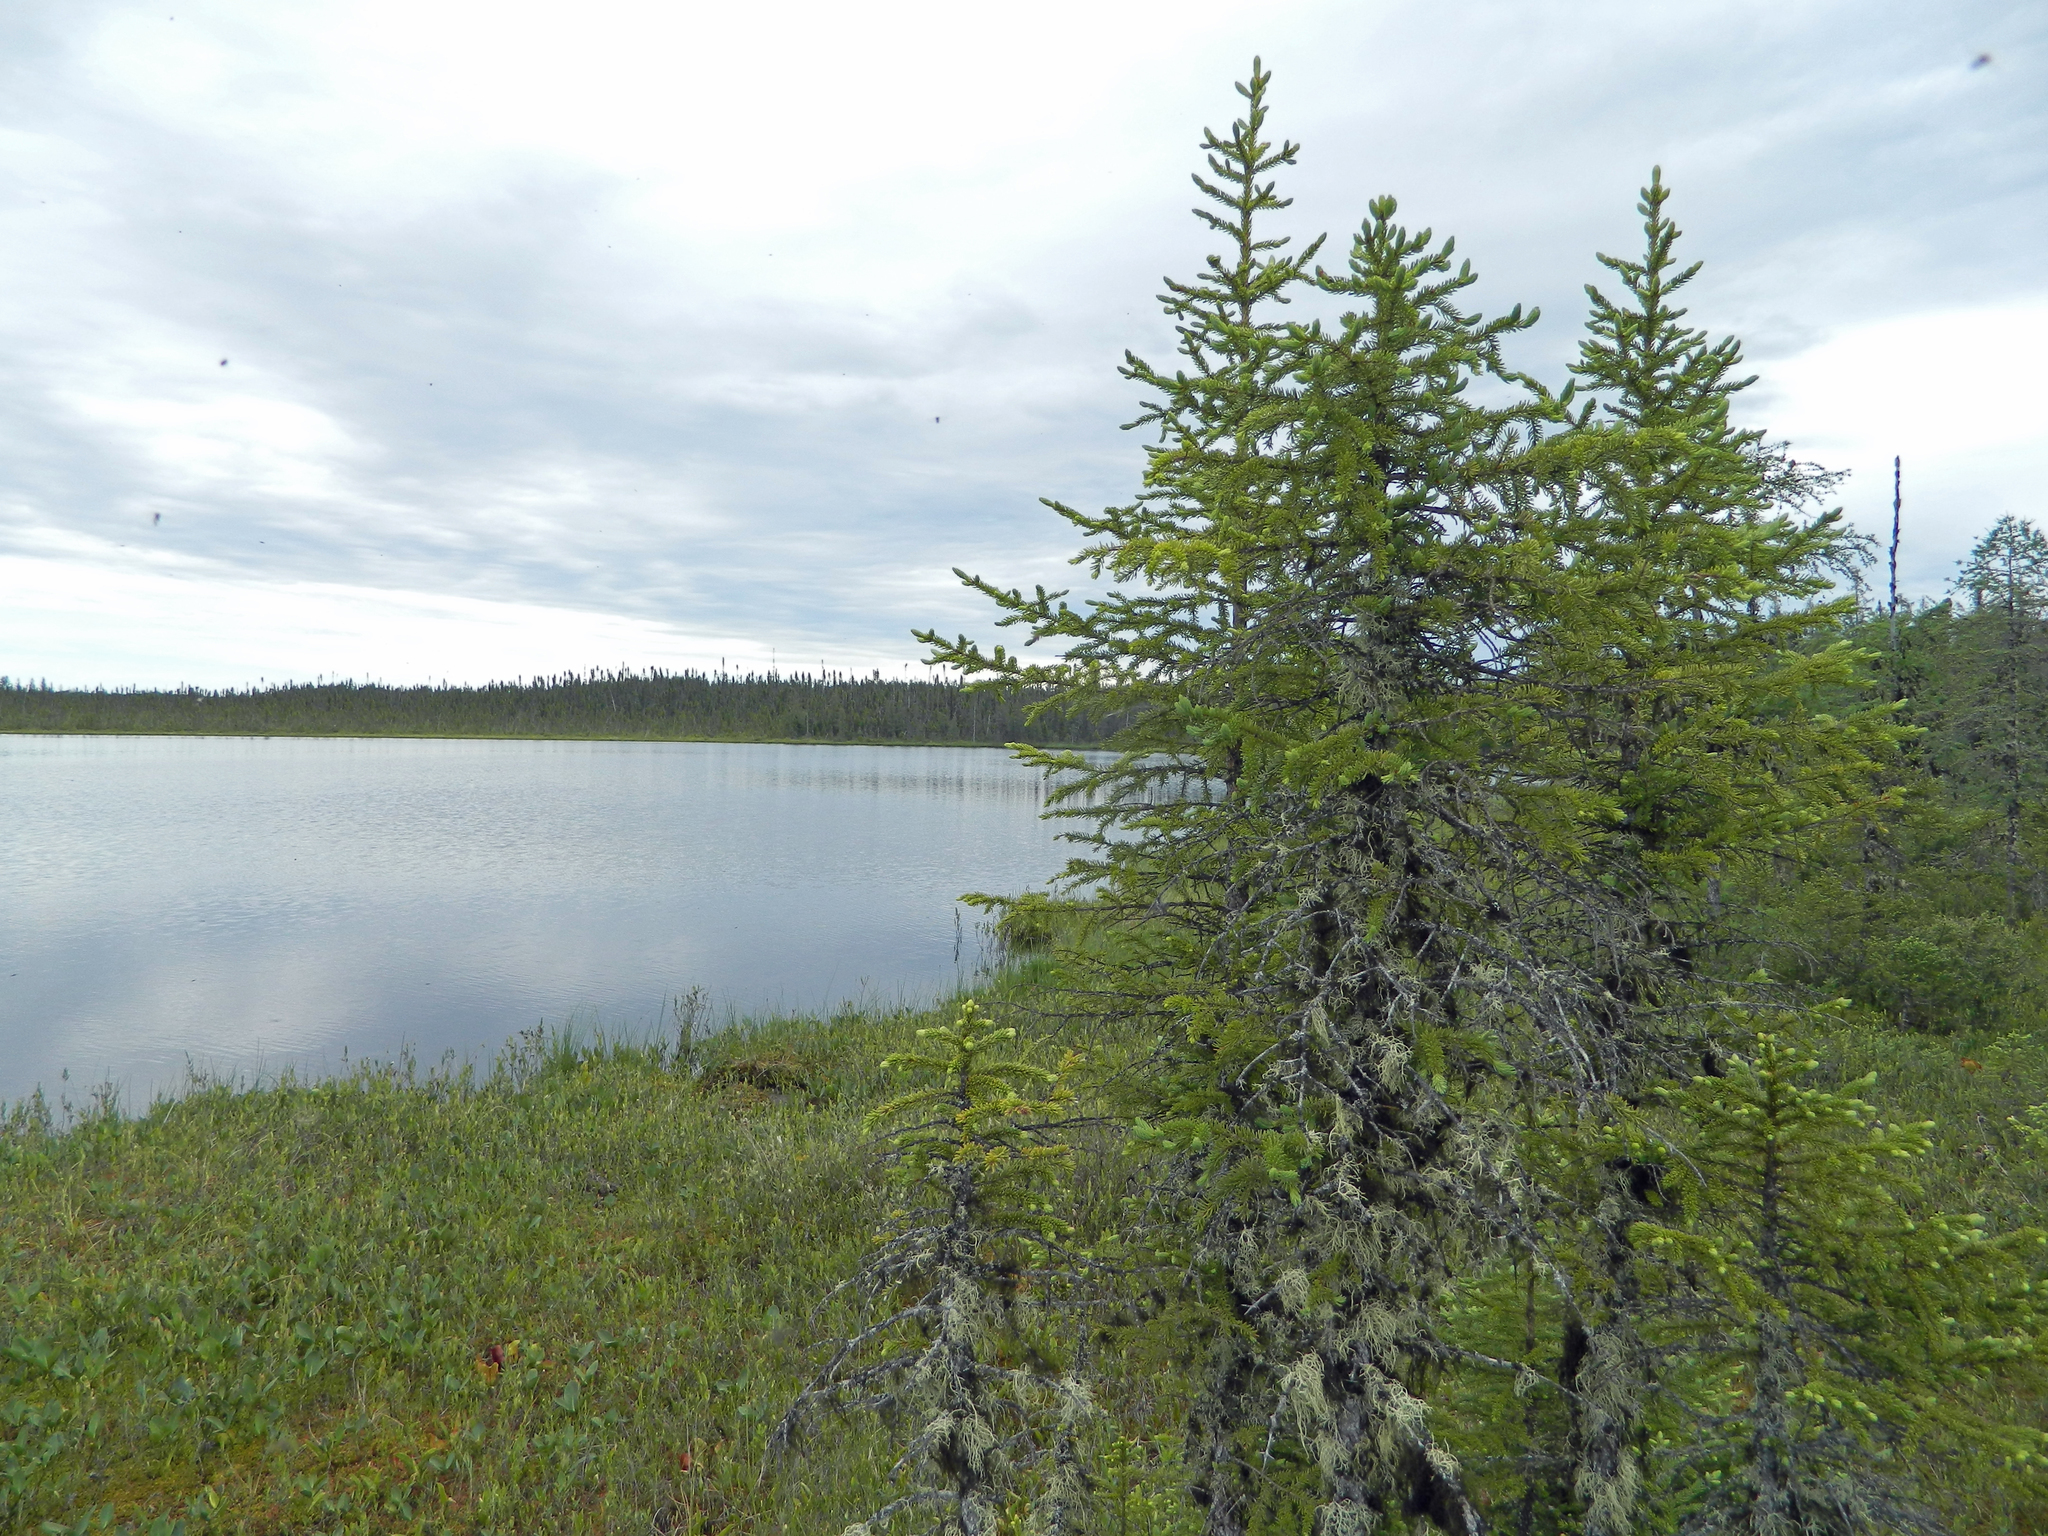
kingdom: Plantae
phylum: Tracheophyta
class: Pinopsida
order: Pinales
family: Pinaceae
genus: Picea
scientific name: Picea mariana
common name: Black spruce
